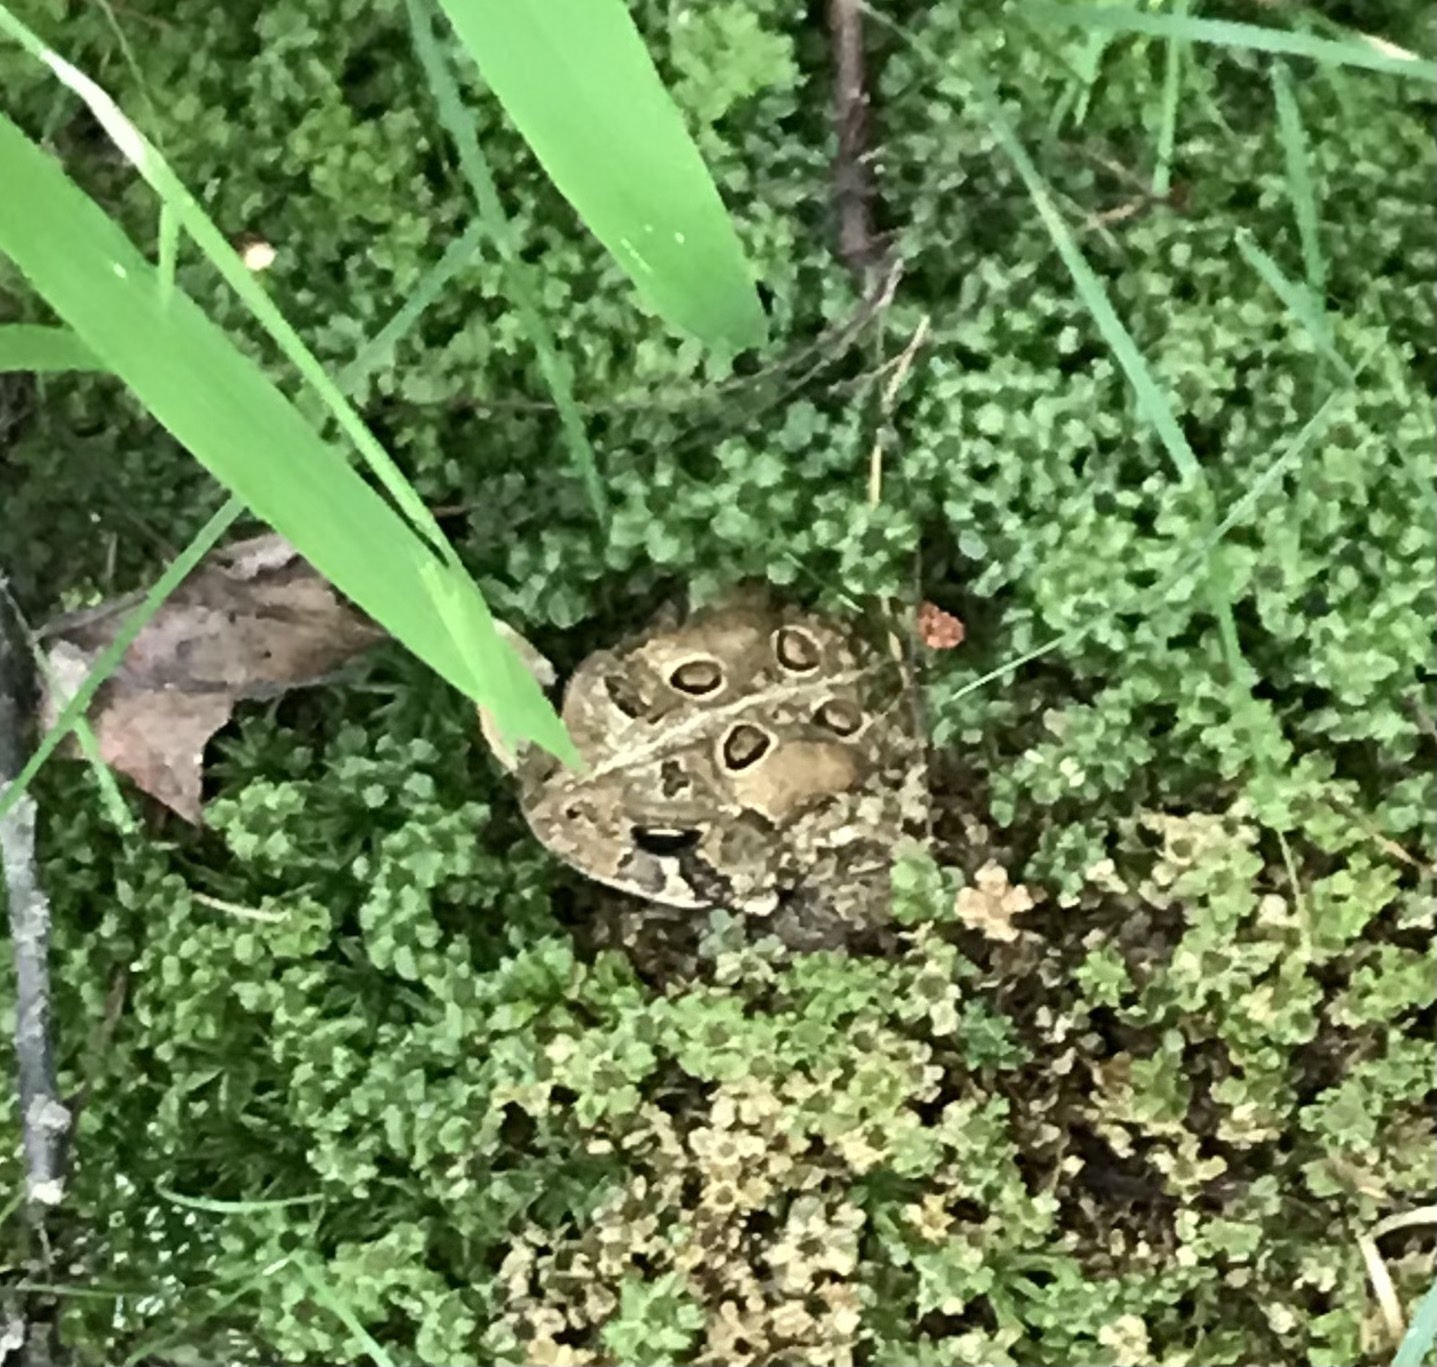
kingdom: Animalia
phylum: Chordata
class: Amphibia
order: Anura
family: Bufonidae
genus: Anaxyrus
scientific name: Anaxyrus americanus
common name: American toad
